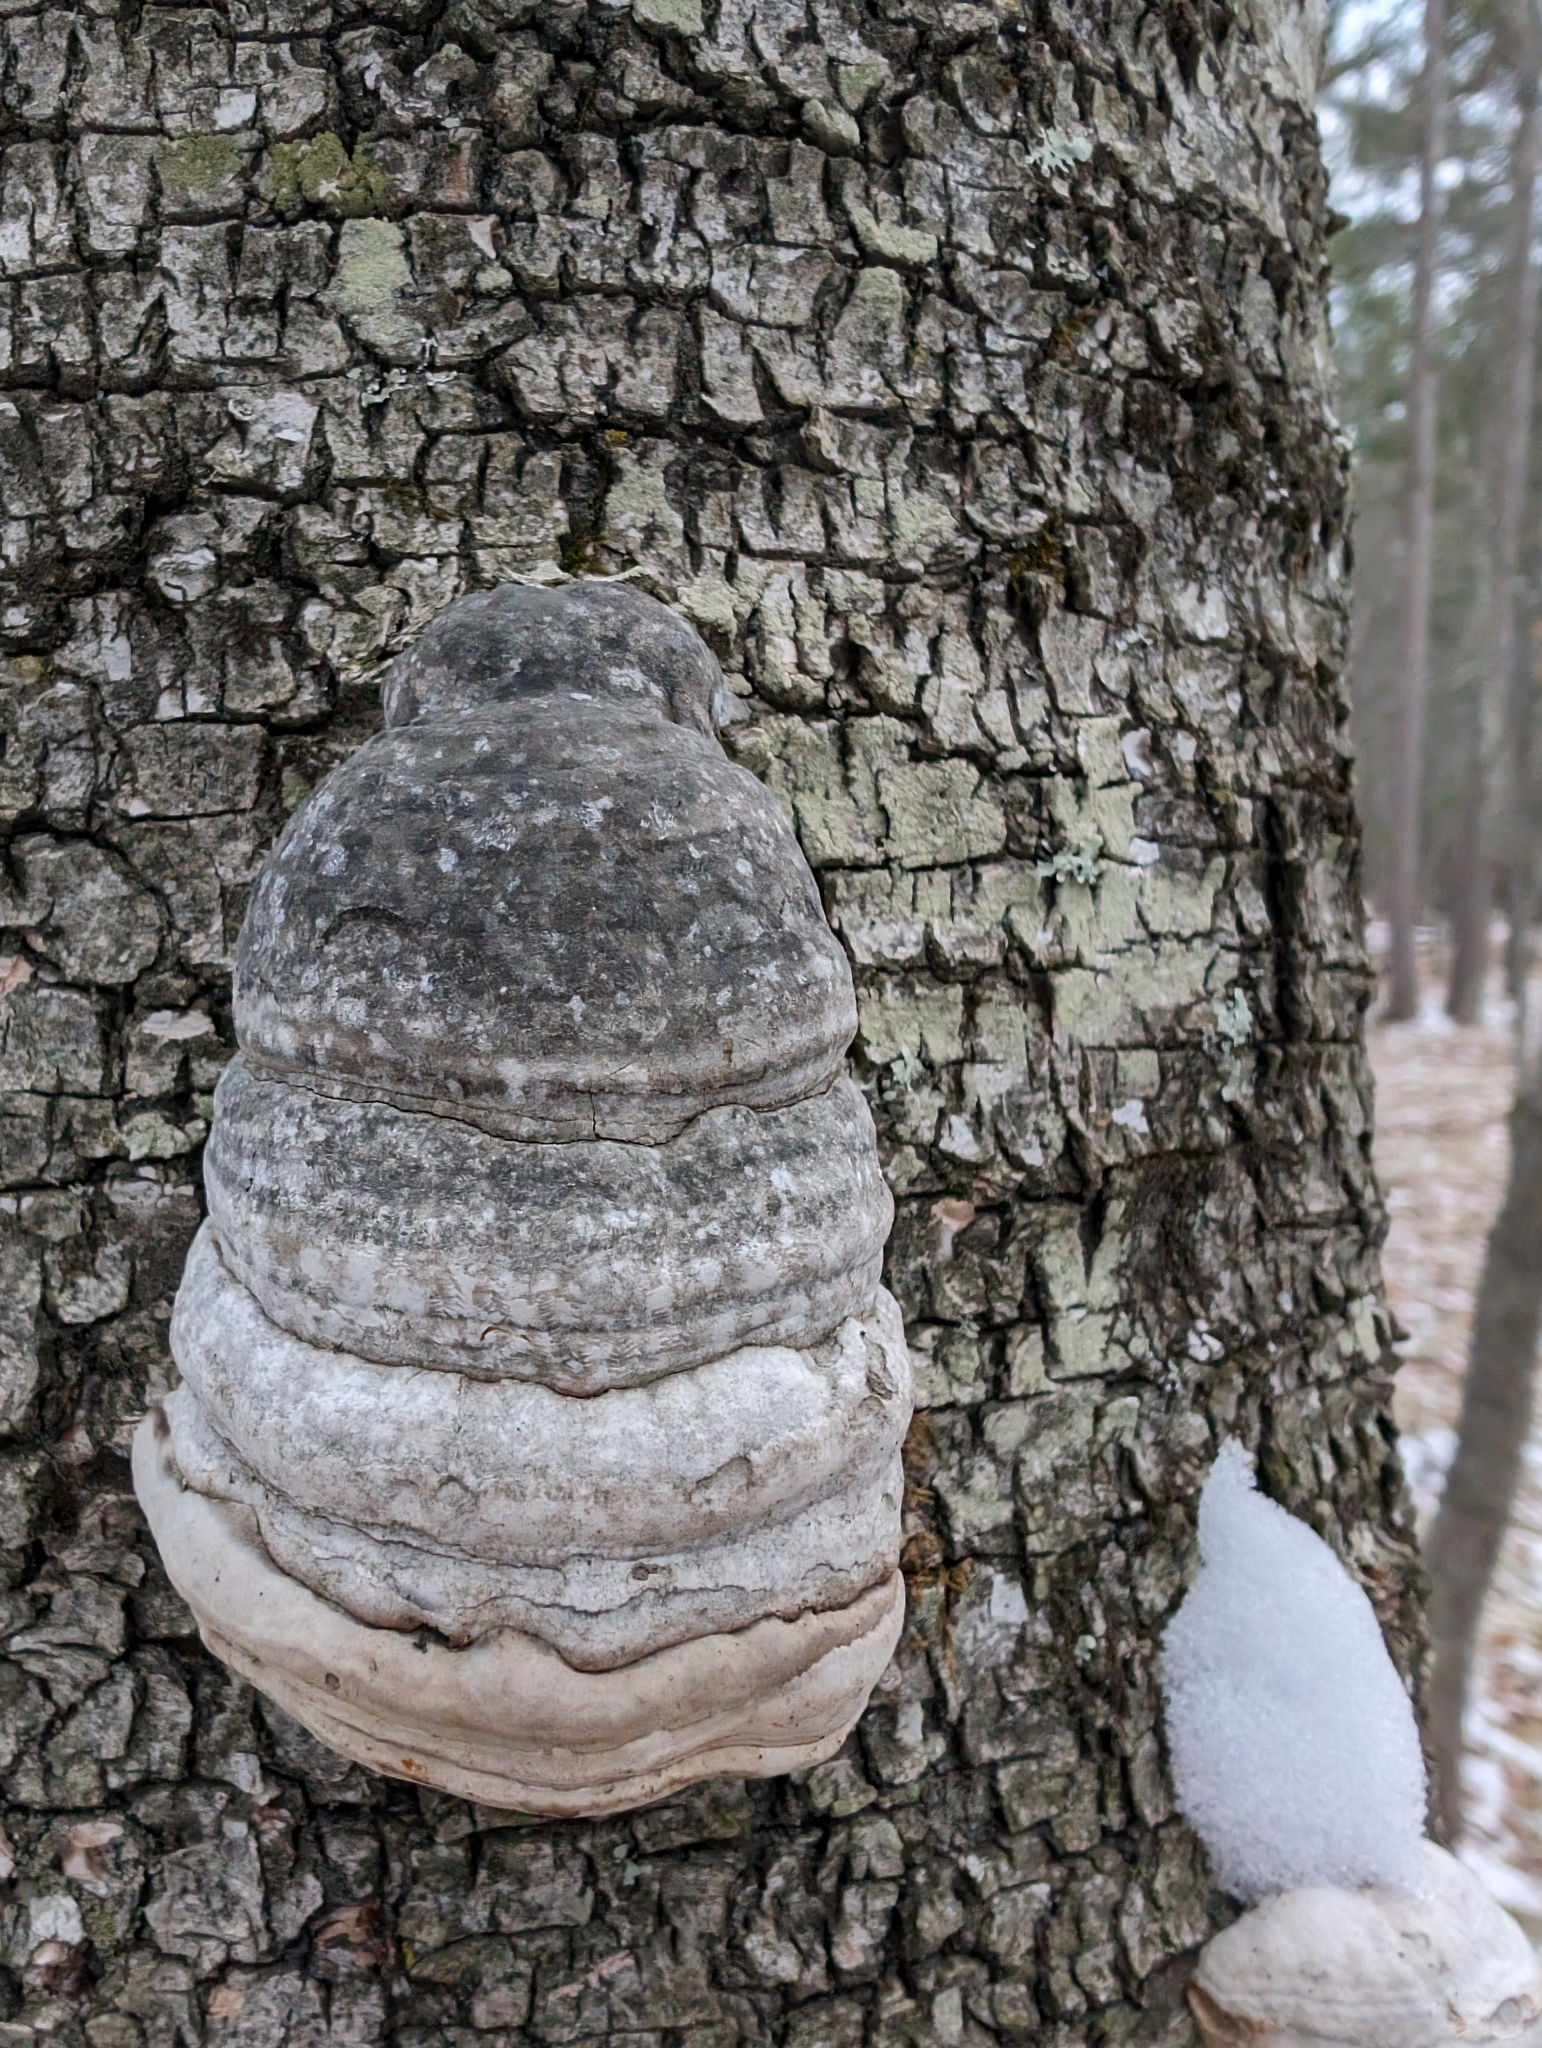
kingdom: Fungi
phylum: Basidiomycota
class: Agaricomycetes
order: Polyporales
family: Polyporaceae
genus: Fomes
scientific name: Fomes fomentarius
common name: Hoof fungus
